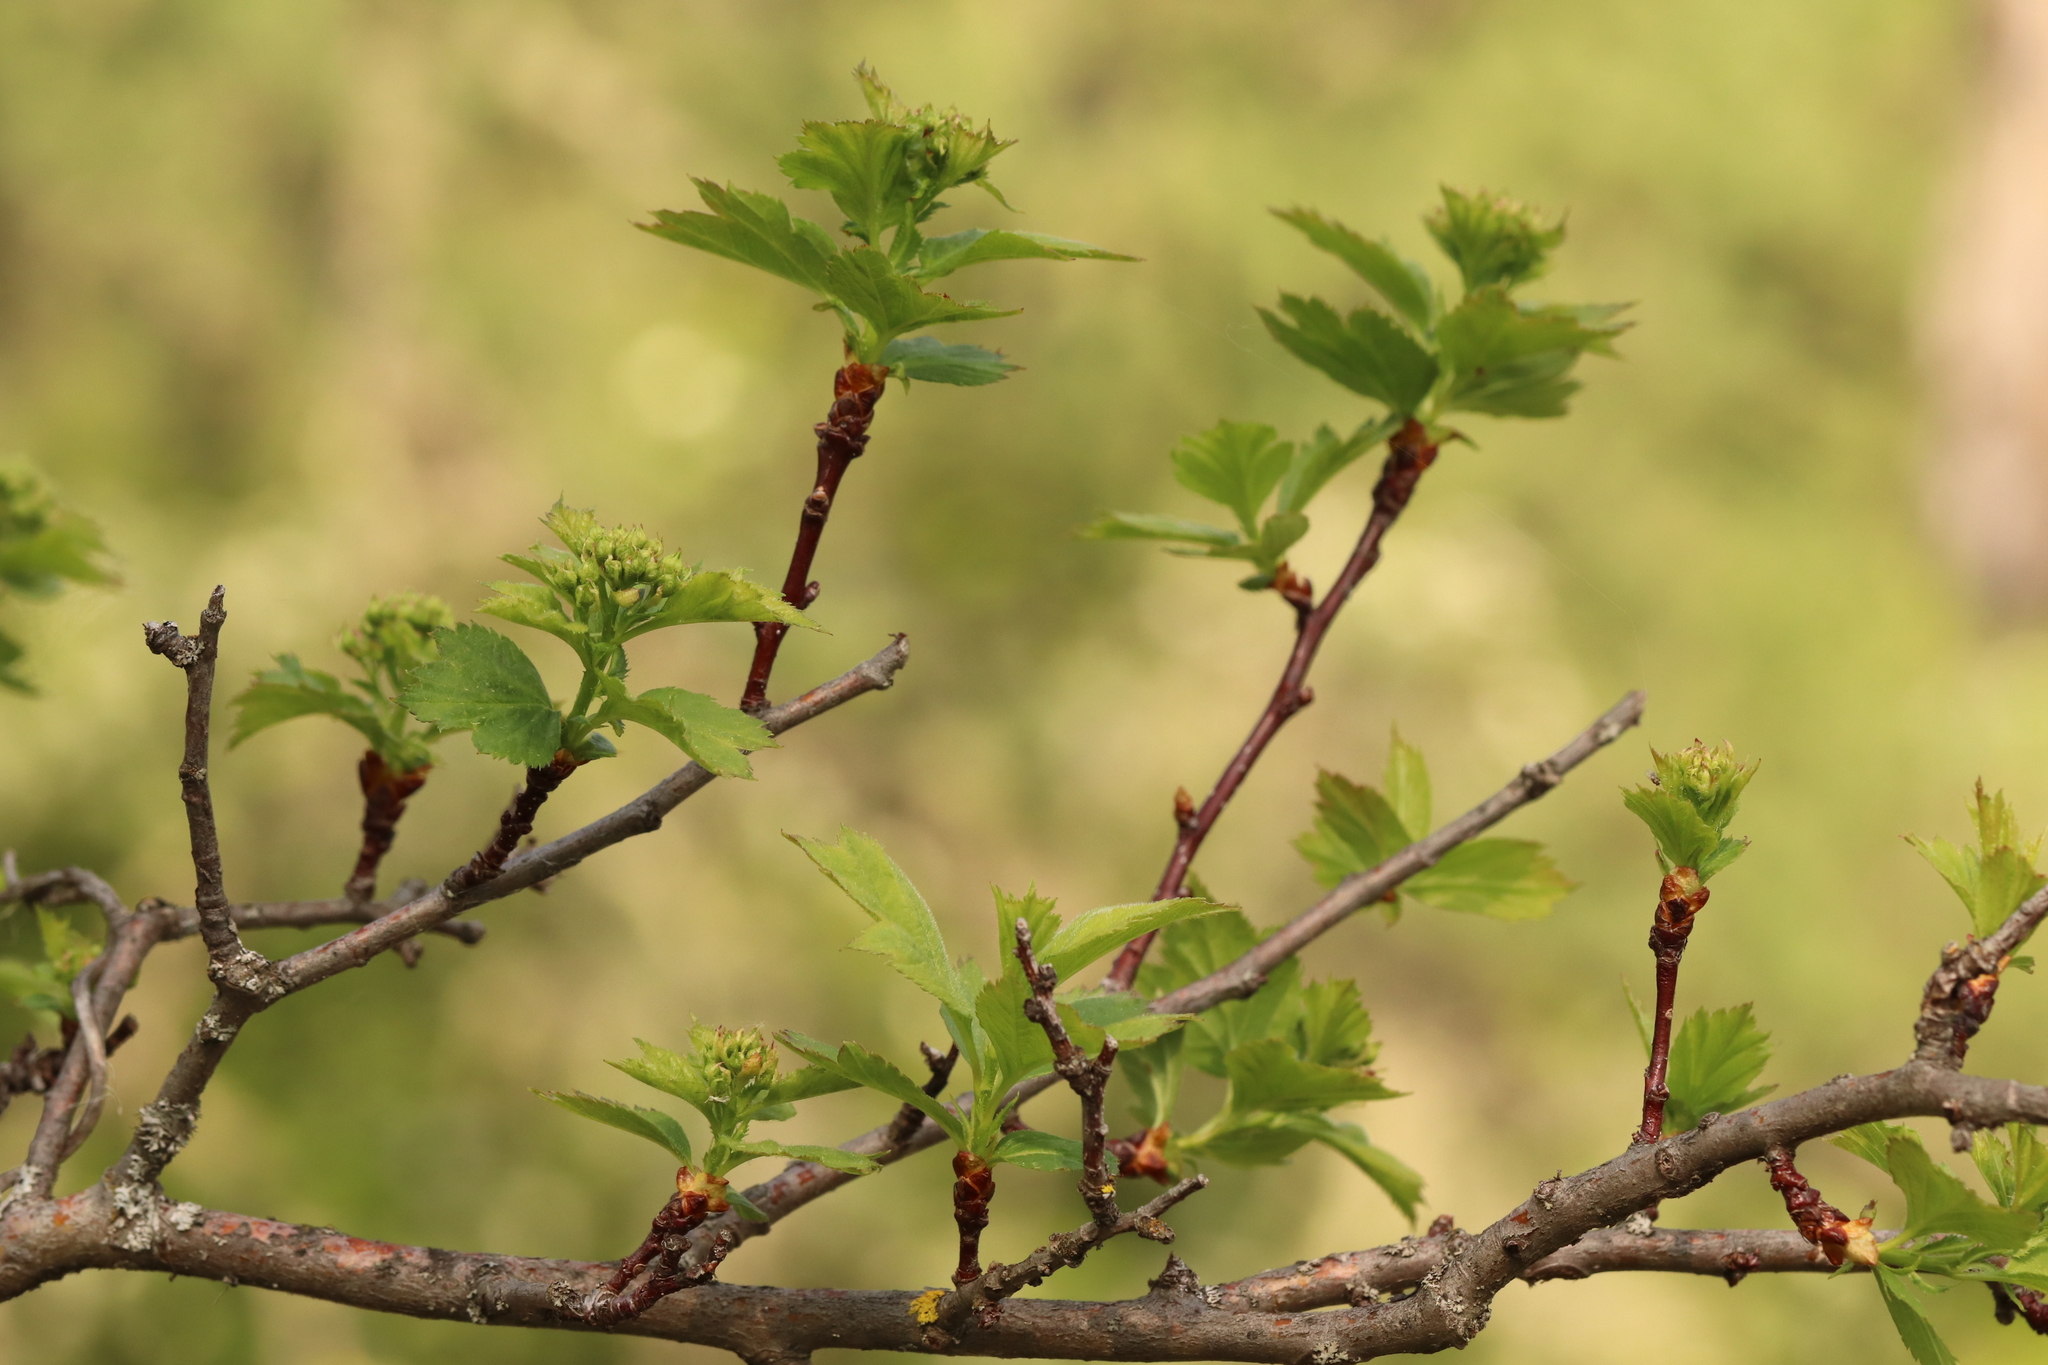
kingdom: Plantae
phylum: Tracheophyta
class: Magnoliopsida
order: Rosales
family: Rosaceae
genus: Crataegus
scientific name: Crataegus sanguinea
